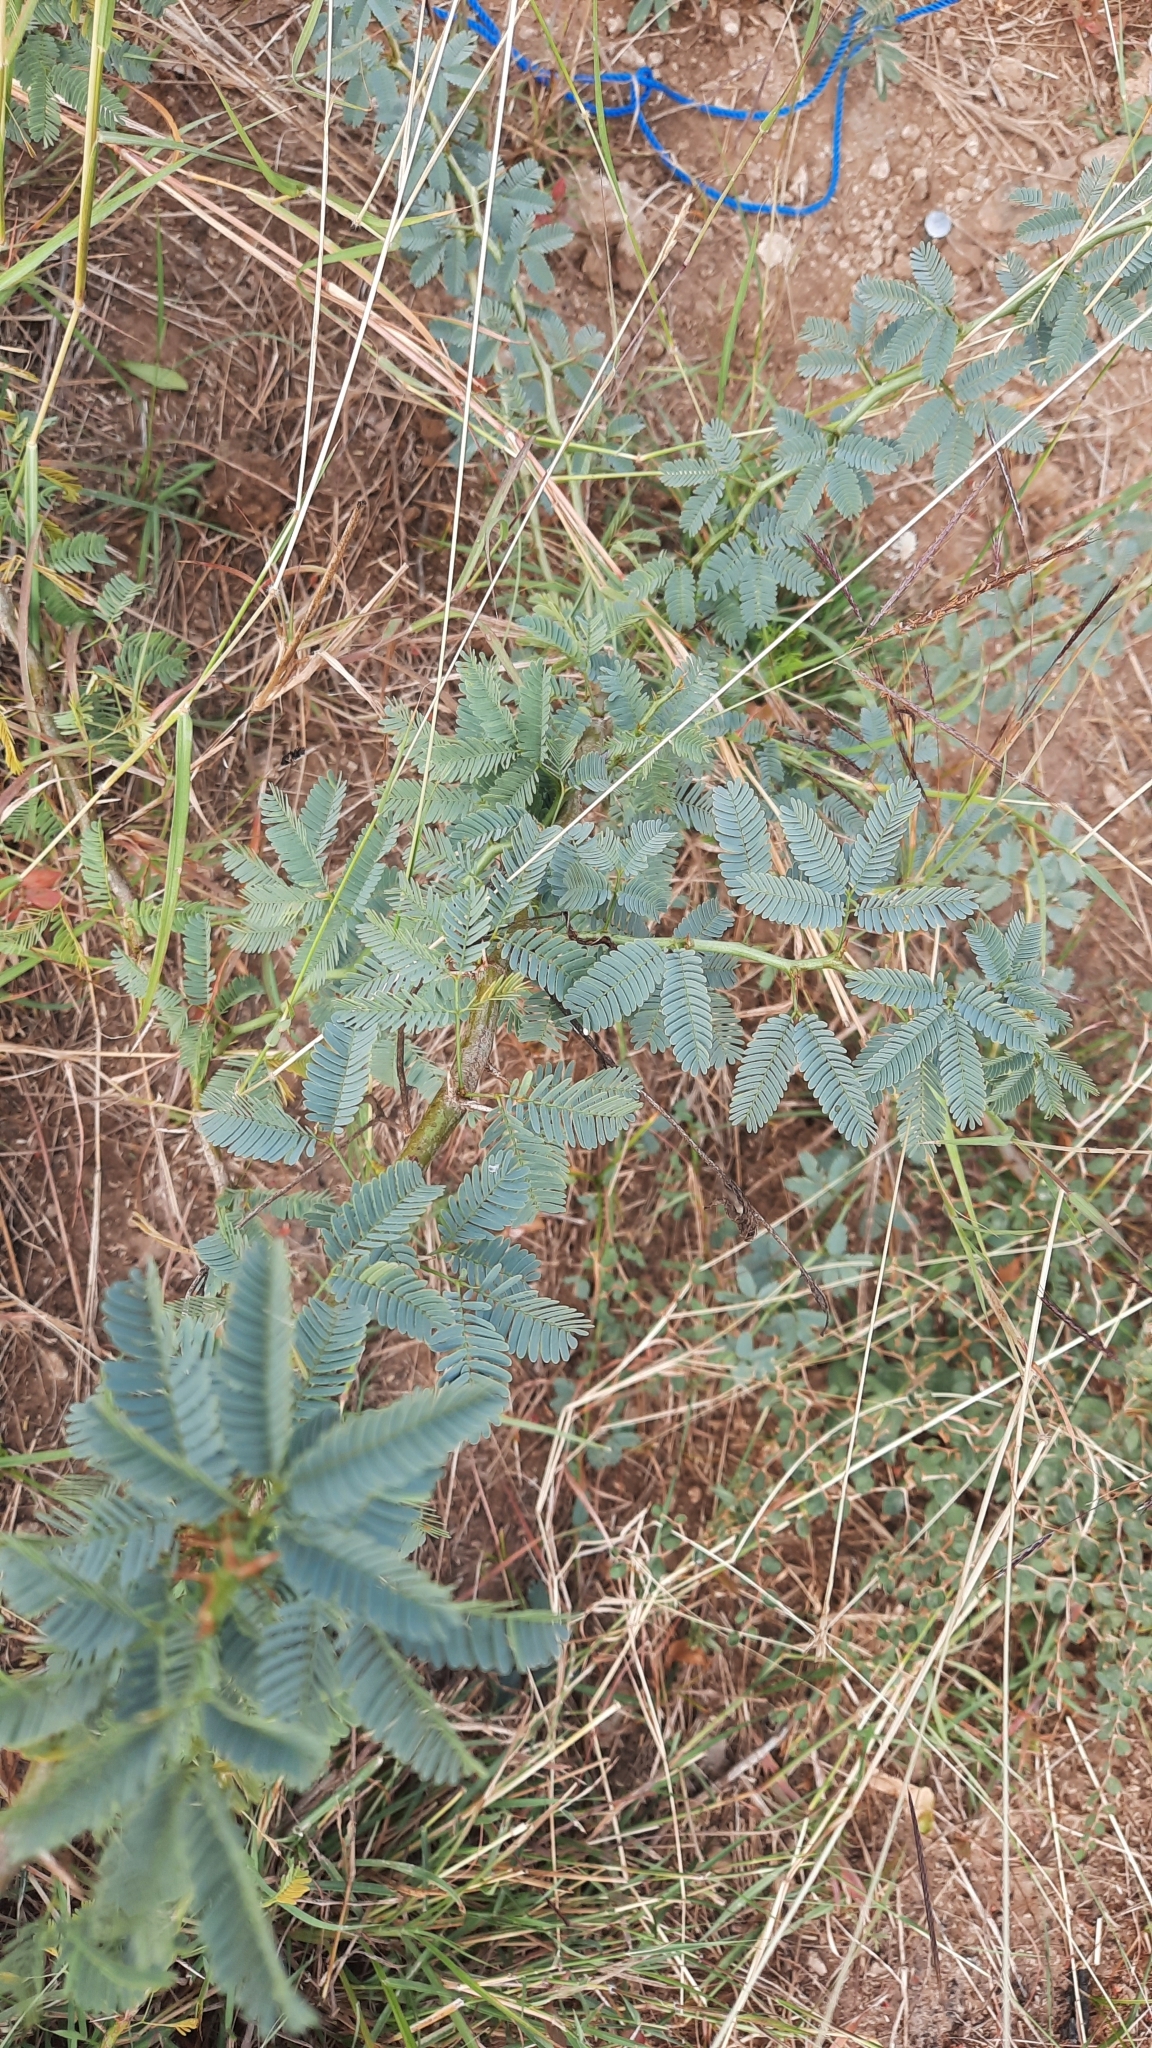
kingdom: Plantae
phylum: Tracheophyta
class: Magnoliopsida
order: Fabales
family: Fabaceae
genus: Prosopis
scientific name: Prosopis juliflora
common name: Mesquite
